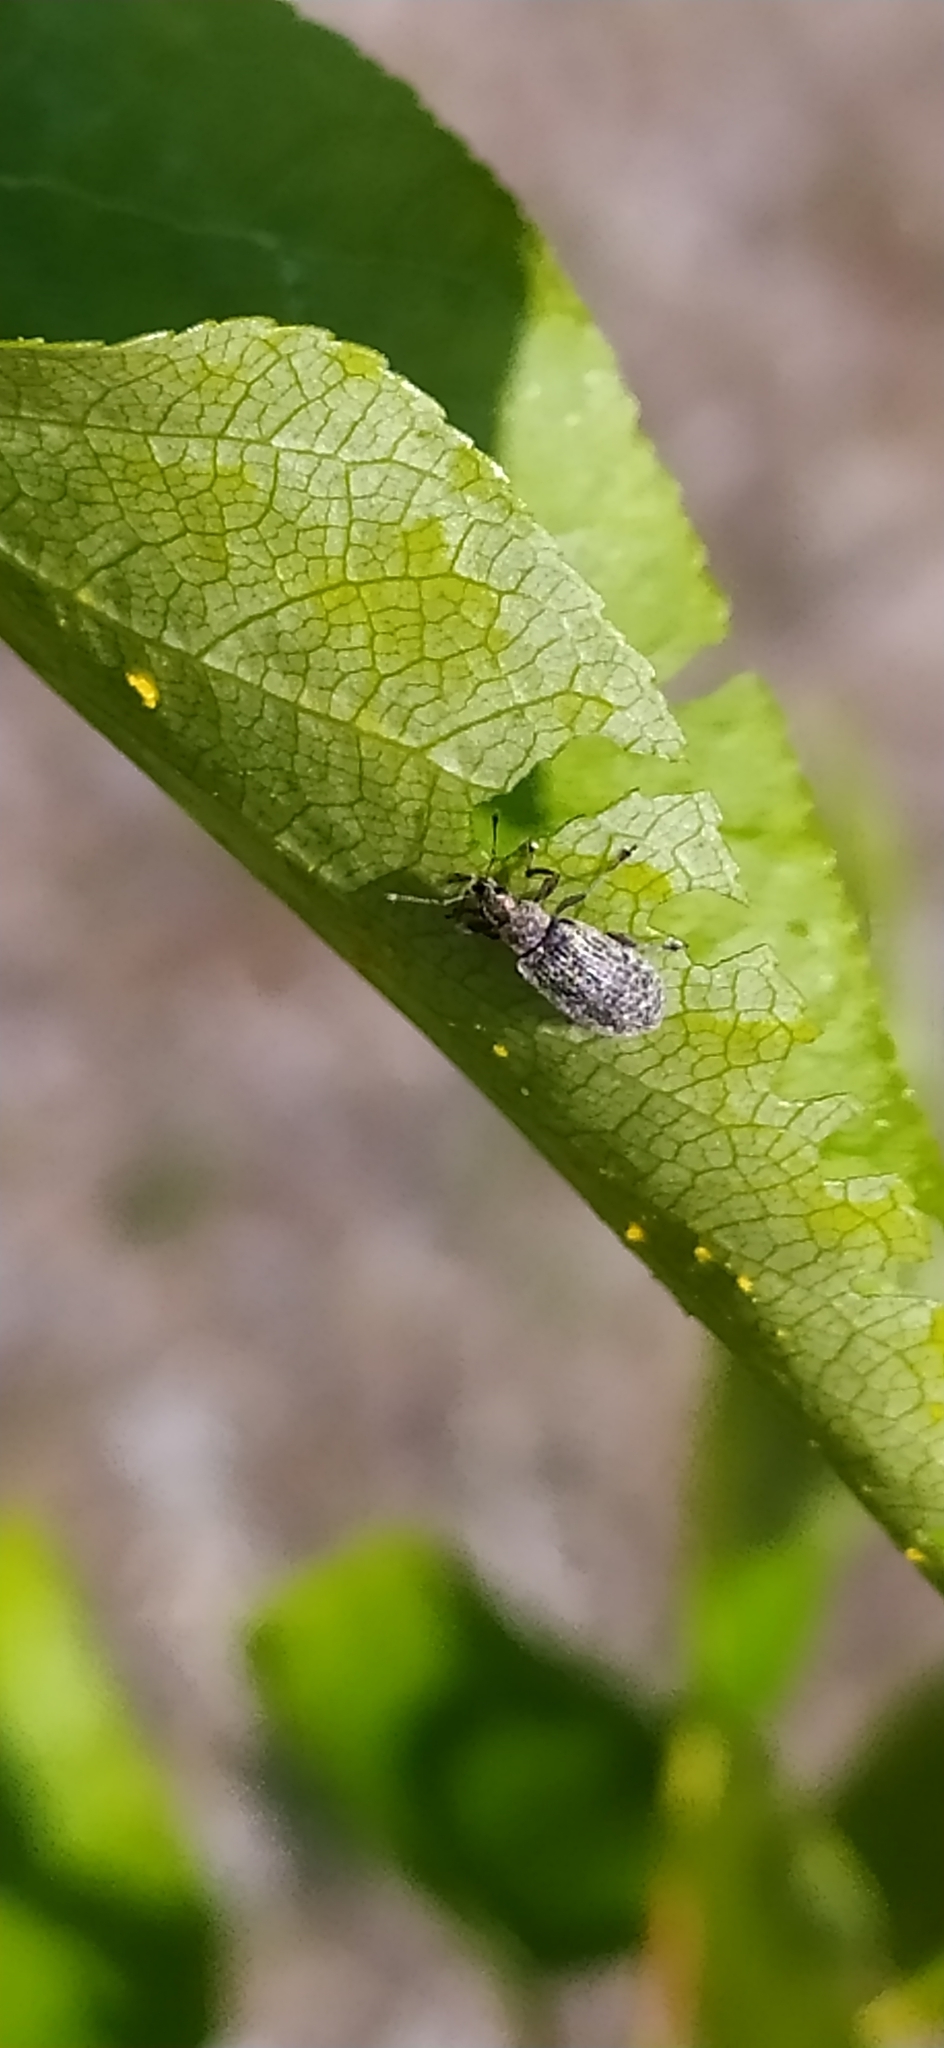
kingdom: Animalia
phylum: Arthropoda
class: Insecta
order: Coleoptera
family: Curculionidae
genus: Polydrusus
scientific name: Polydrusus pilosus
